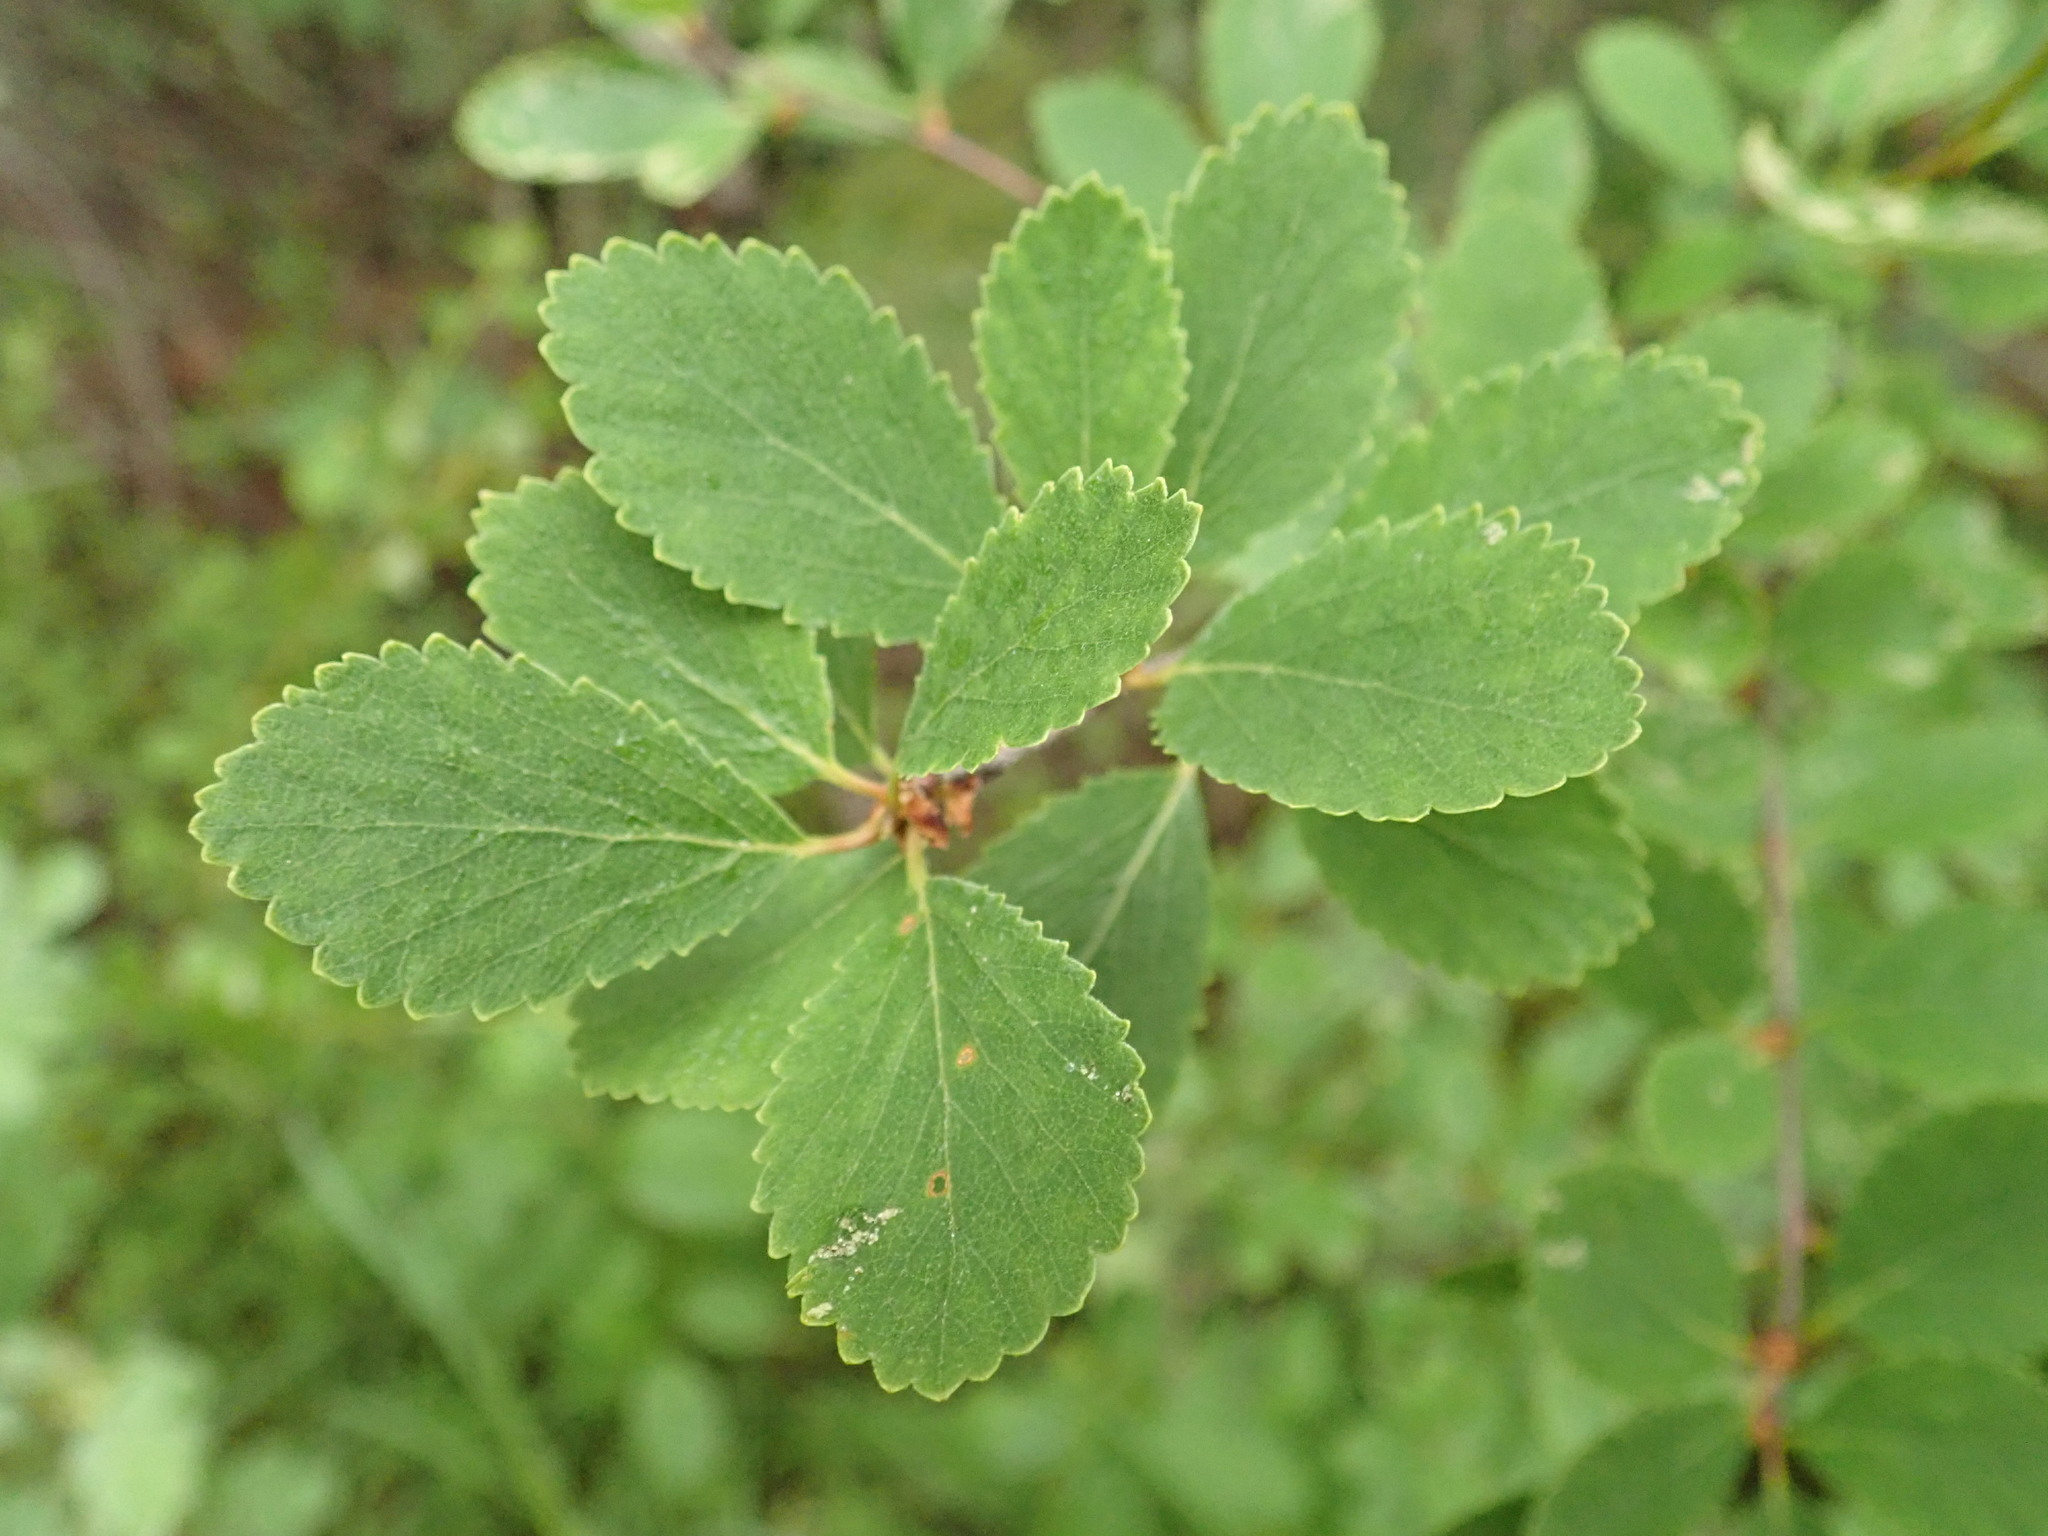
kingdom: Plantae
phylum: Tracheophyta
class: Magnoliopsida
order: Fagales
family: Betulaceae
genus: Betula
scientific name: Betula pumila
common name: Bog birch
